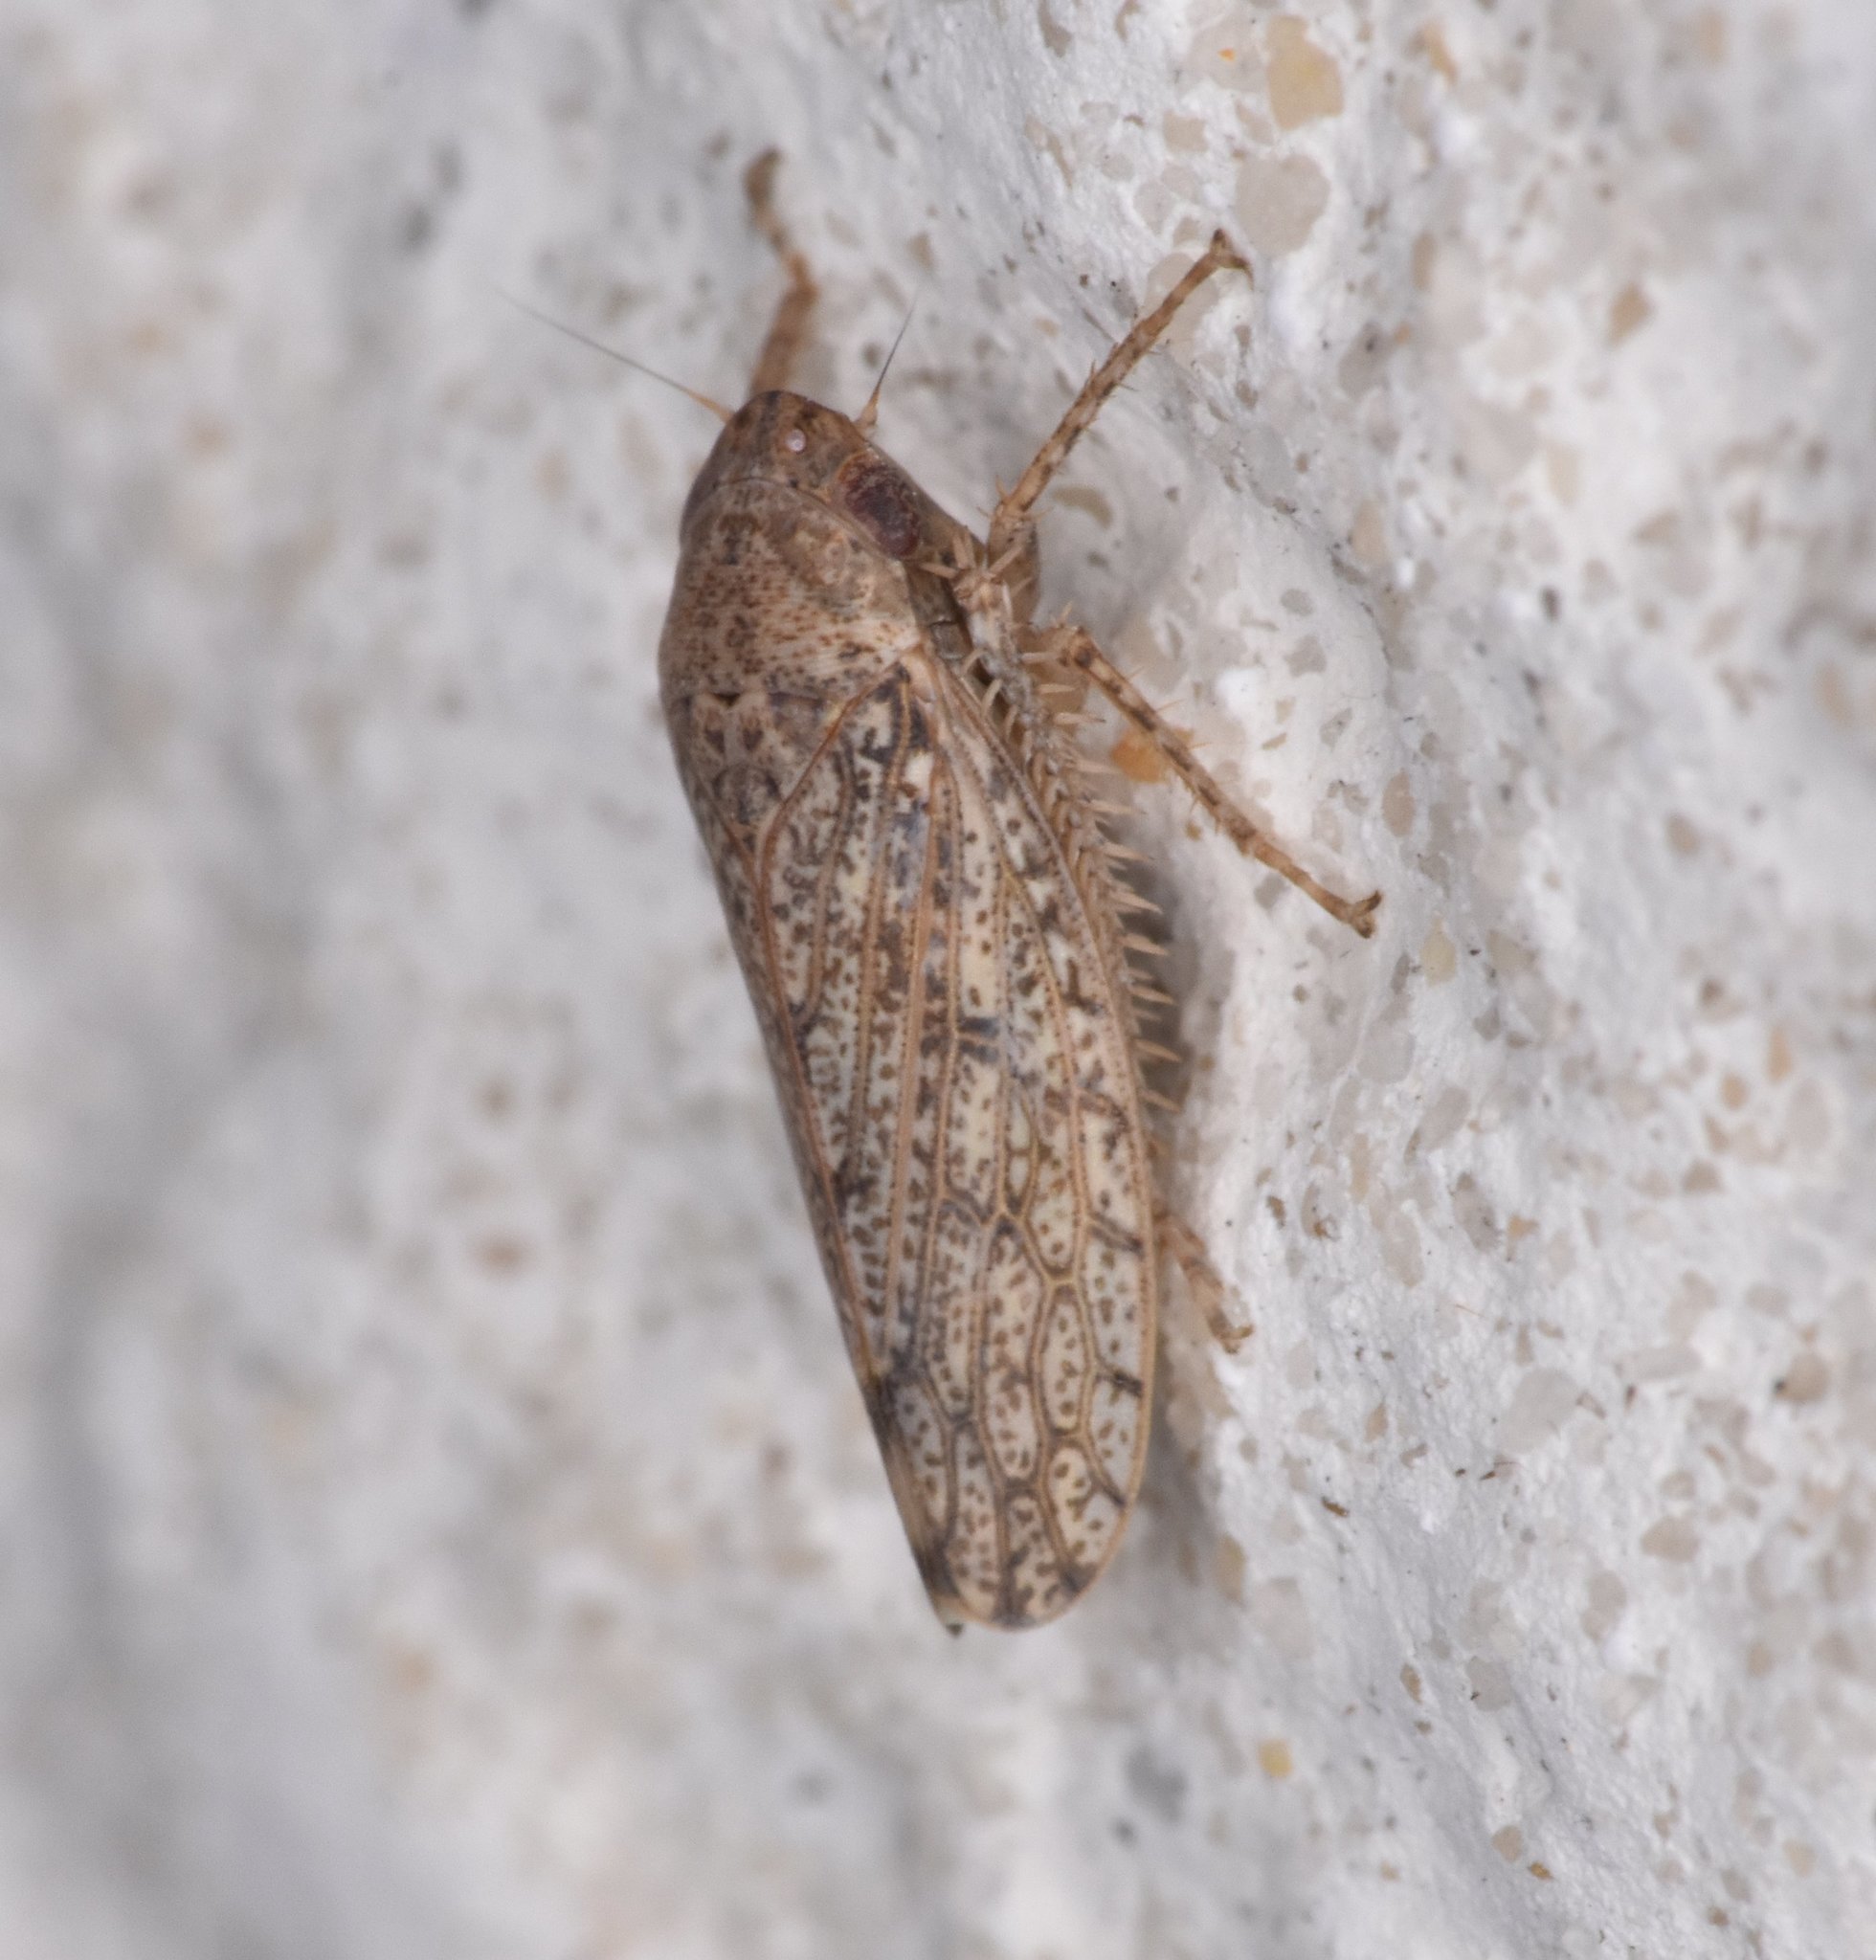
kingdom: Animalia
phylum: Arthropoda
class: Insecta
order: Hemiptera
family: Cicadellidae
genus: Curtara
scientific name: Curtara insularis
